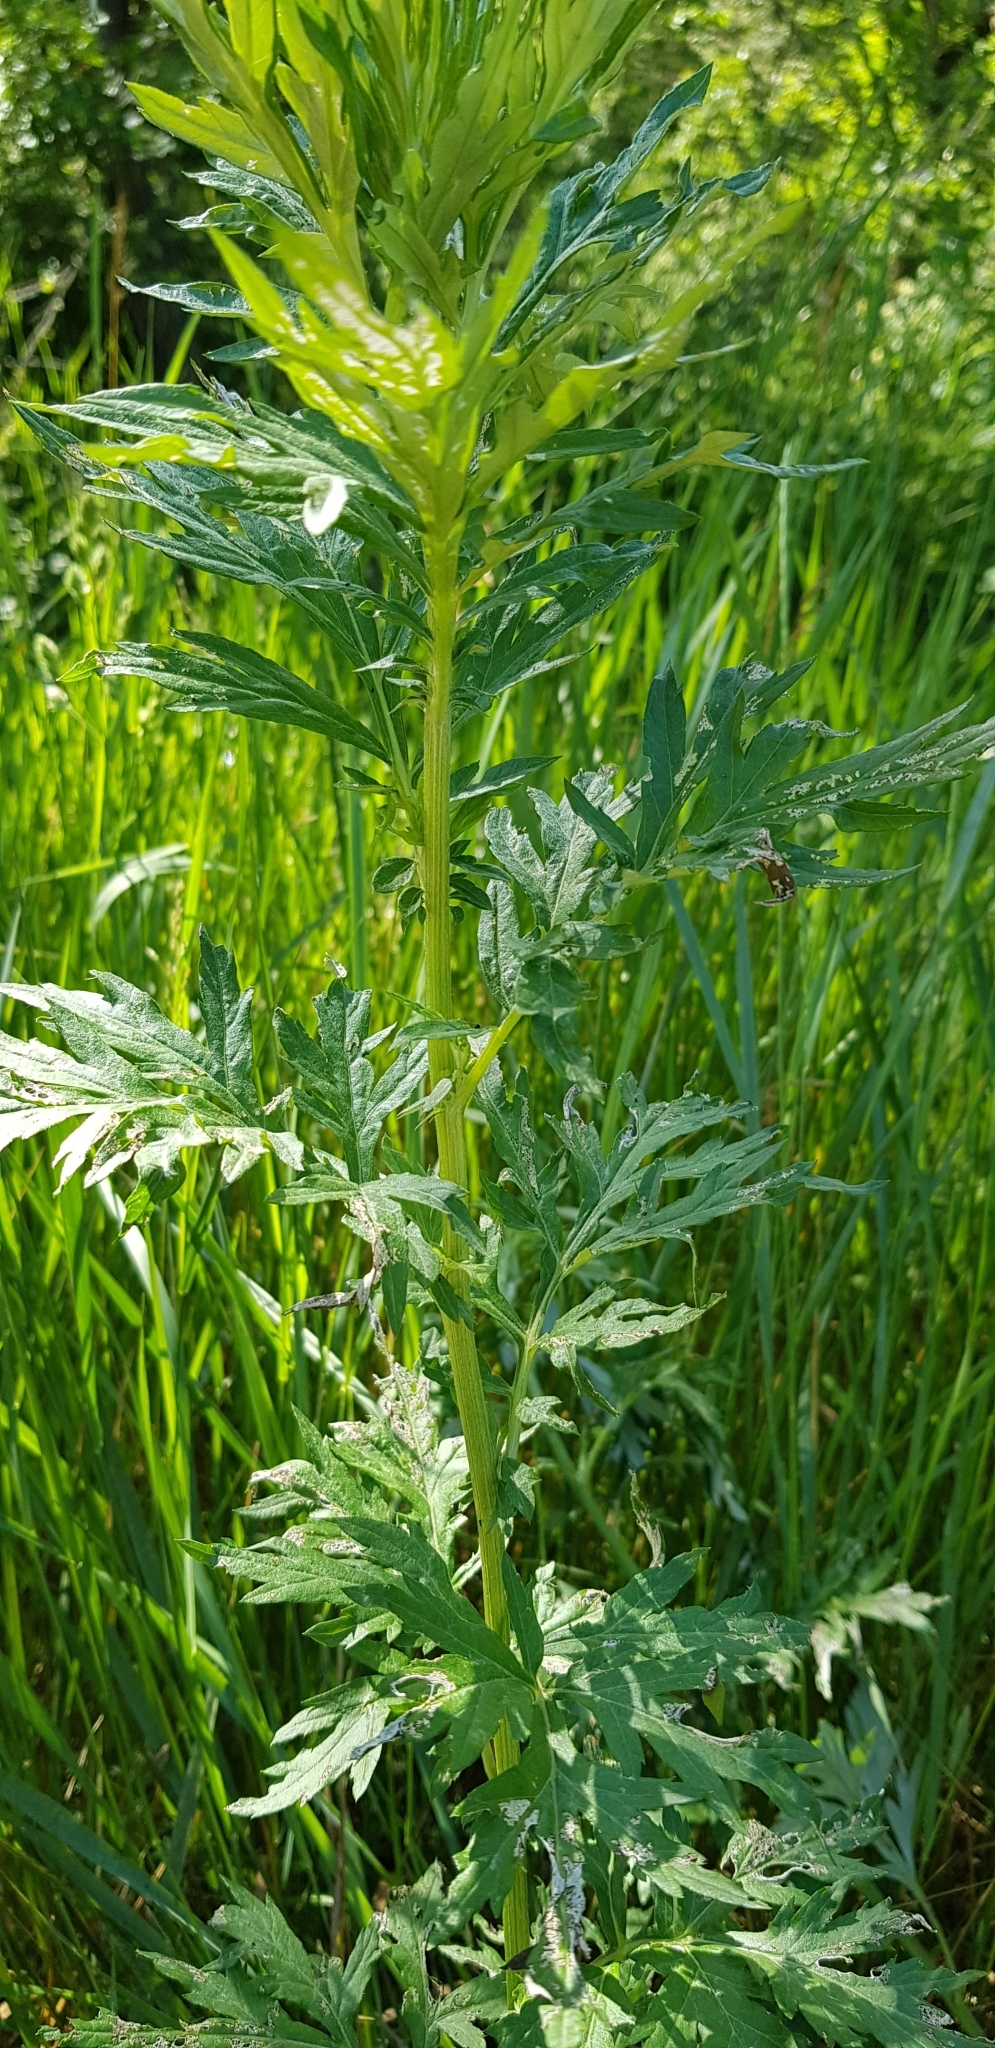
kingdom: Plantae
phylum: Tracheophyta
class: Magnoliopsida
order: Asterales
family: Asteraceae
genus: Artemisia
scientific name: Artemisia vulgaris
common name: Mugwort
